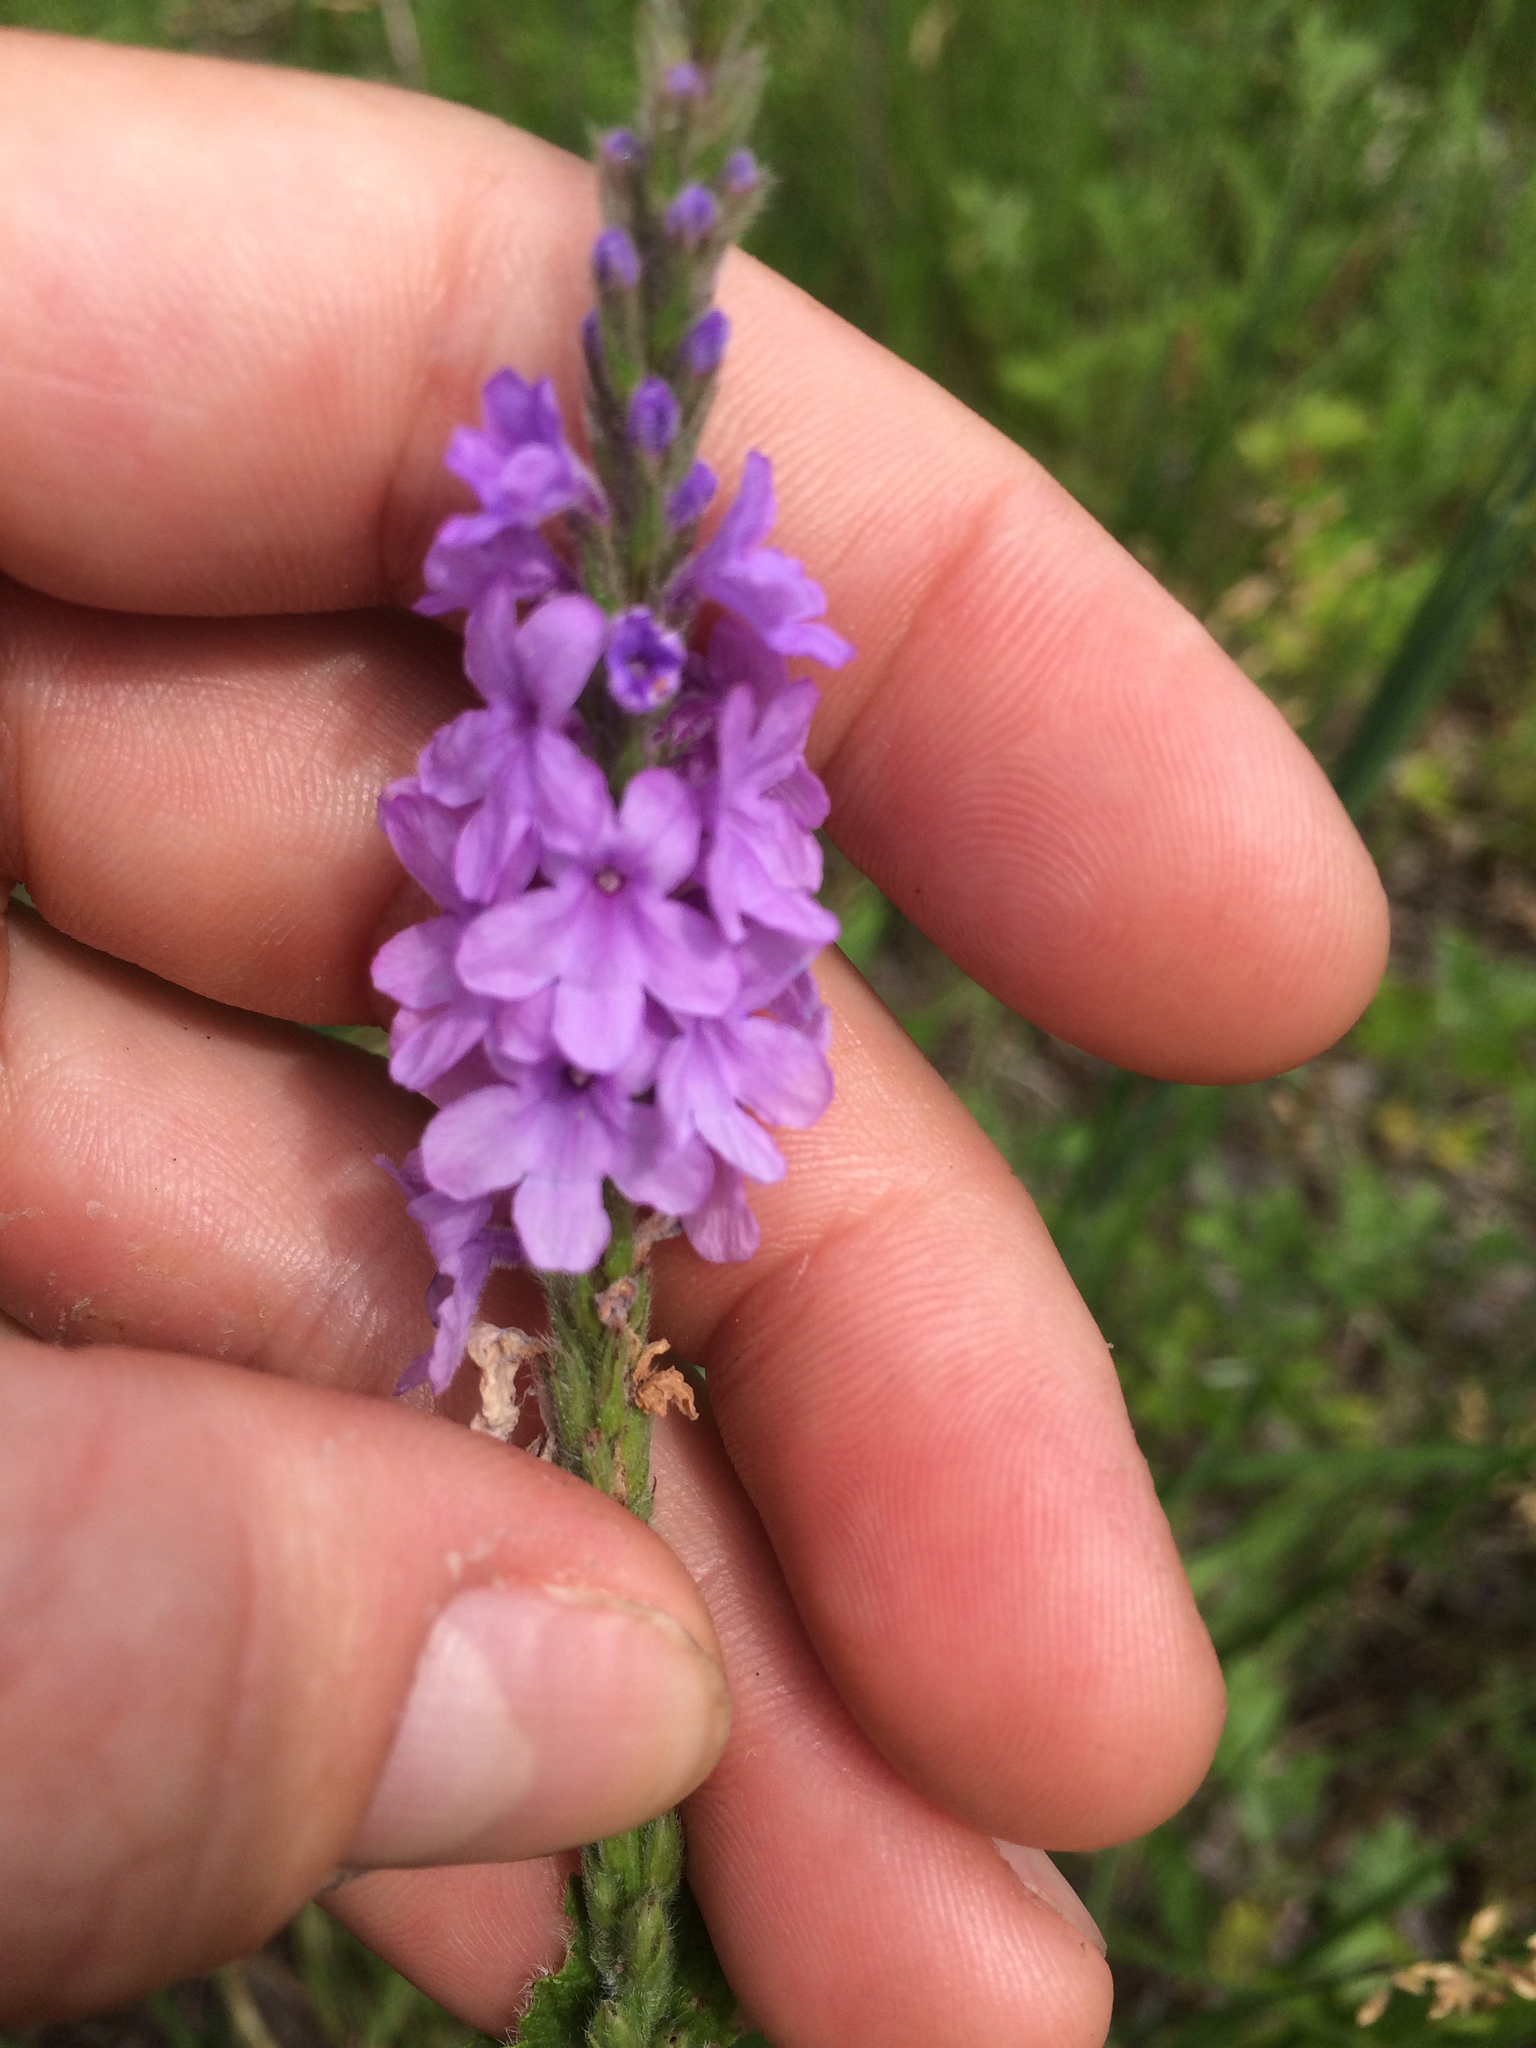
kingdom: Plantae
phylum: Tracheophyta
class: Magnoliopsida
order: Lamiales
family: Verbenaceae
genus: Verbena
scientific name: Verbena stricta
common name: Hoary vervain
